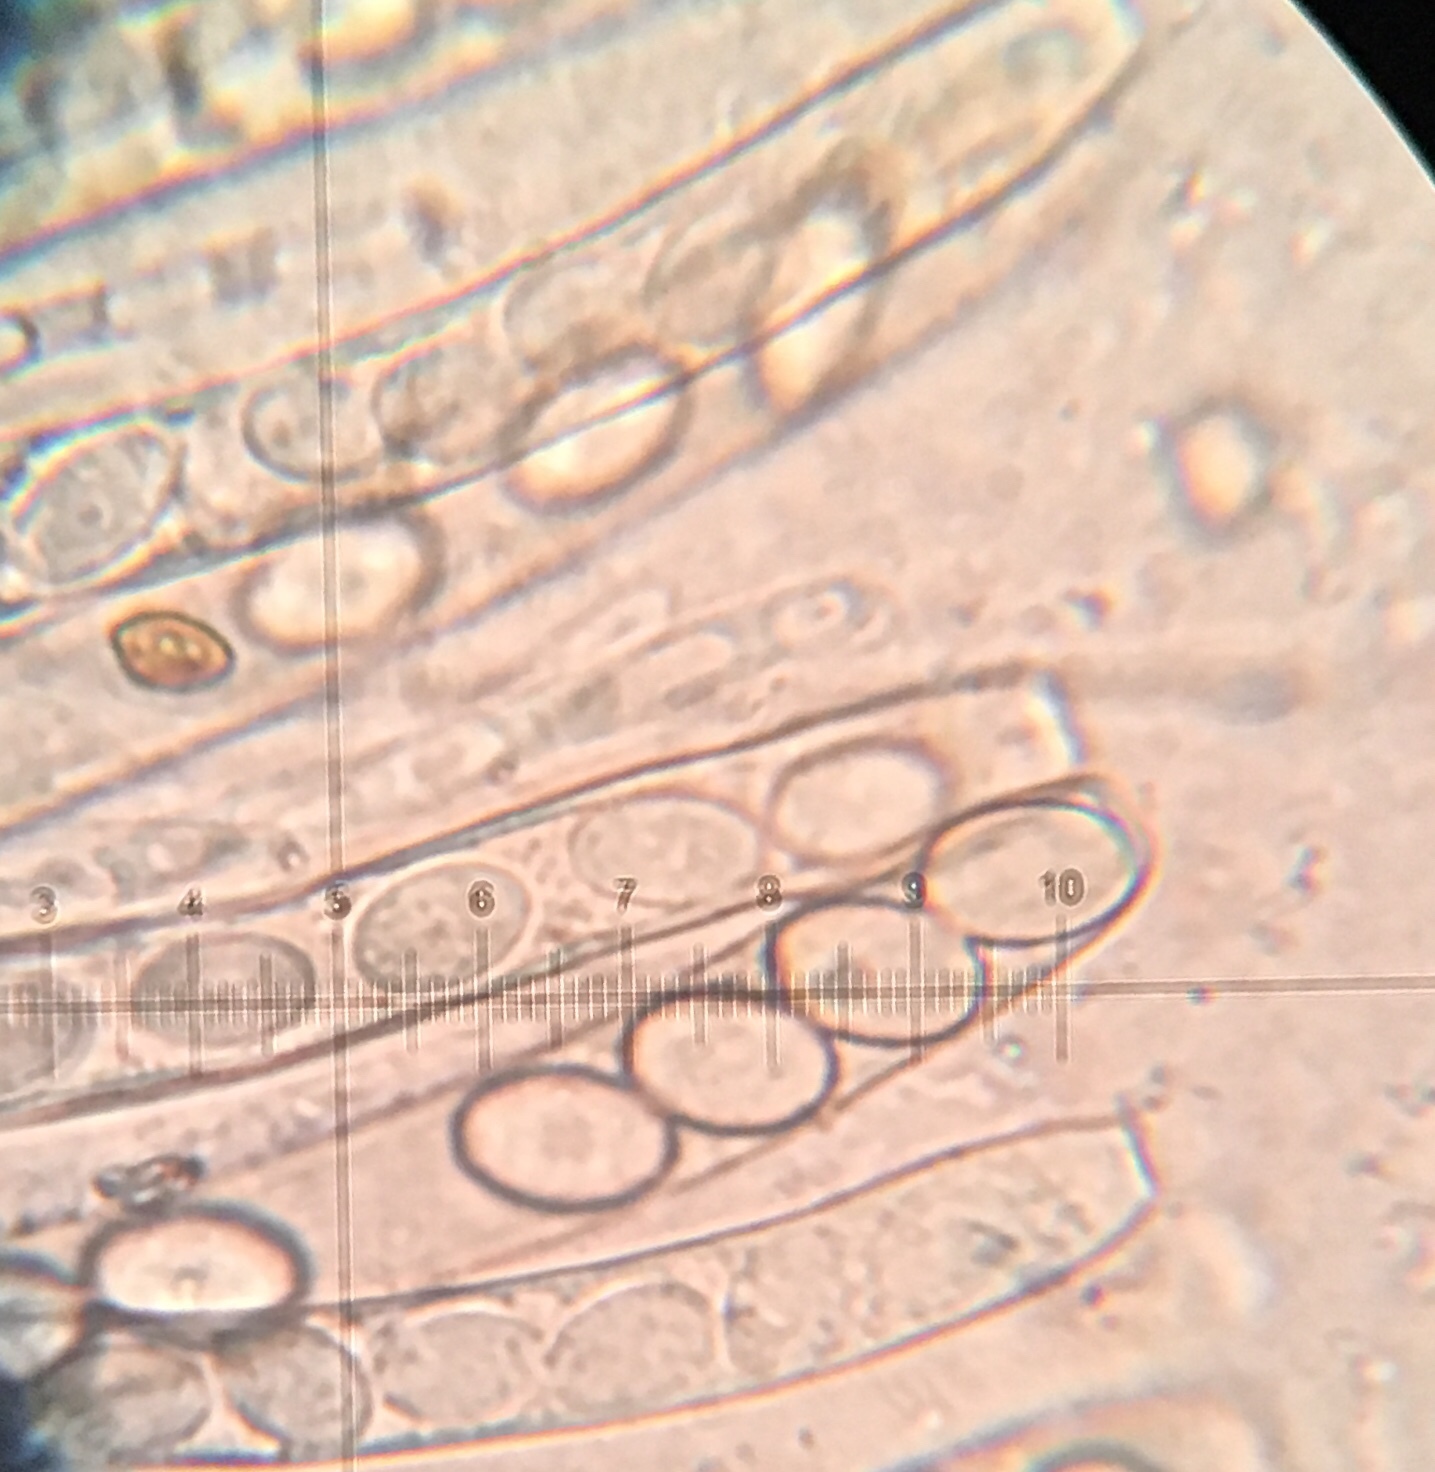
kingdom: Fungi
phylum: Ascomycota
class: Pezizomycetes
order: Pezizales
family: Pezizaceae
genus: Peziza
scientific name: Peziza varia
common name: Layered cup
